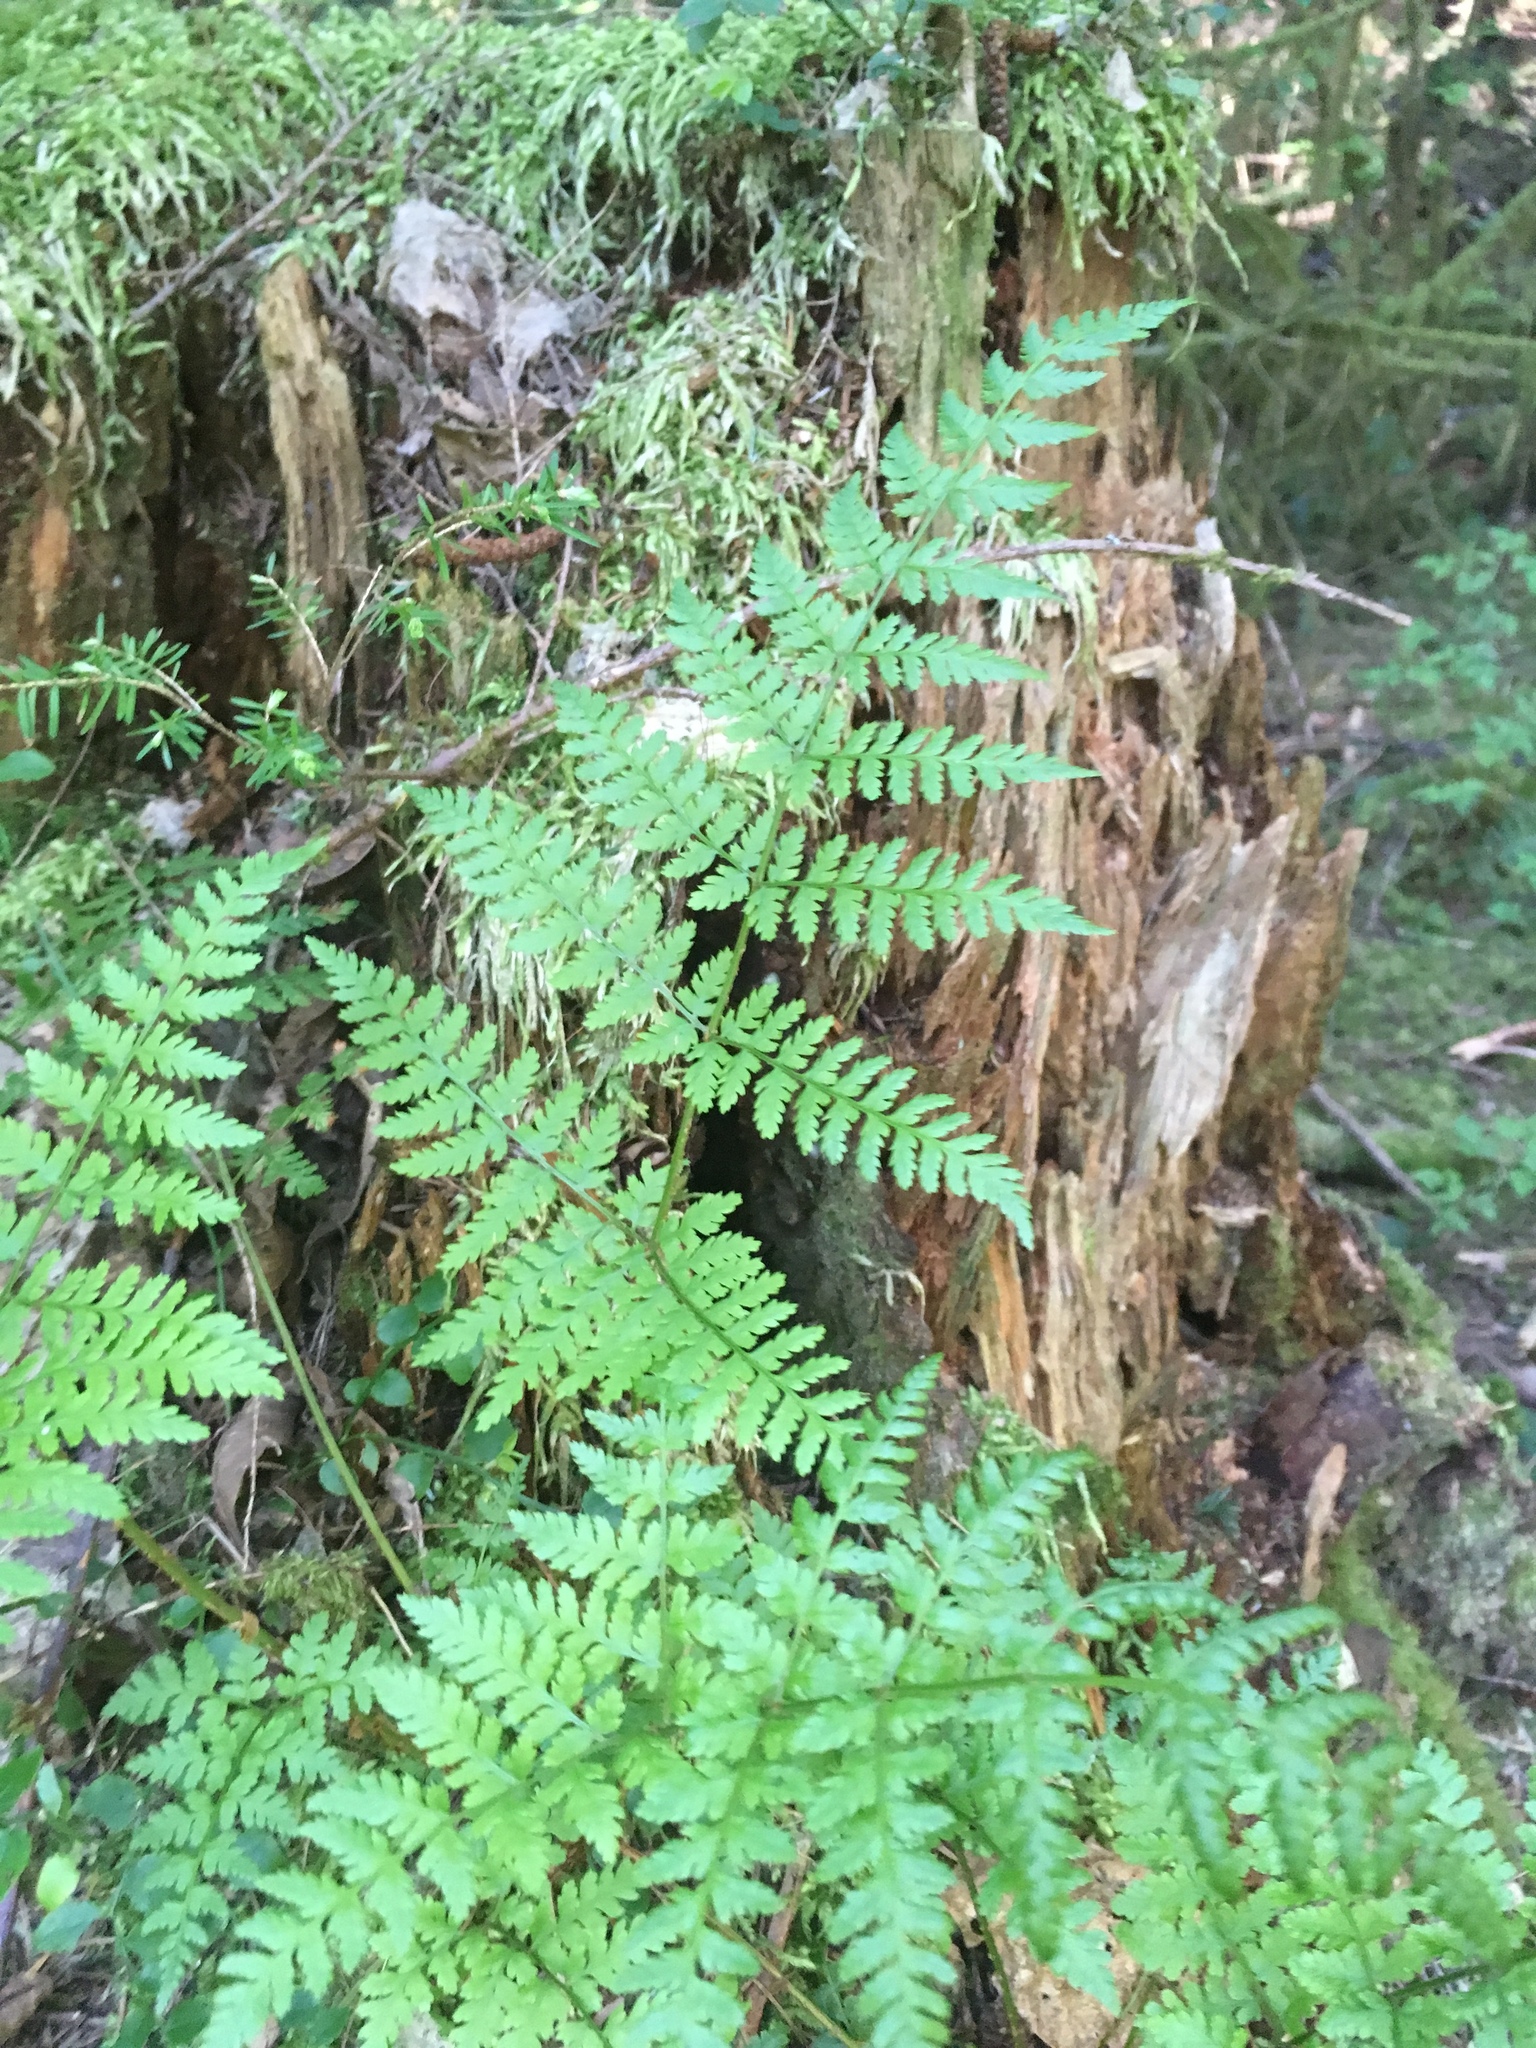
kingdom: Plantae
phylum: Tracheophyta
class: Polypodiopsida
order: Polypodiales
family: Dryopteridaceae
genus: Dryopteris
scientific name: Dryopteris expansa
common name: Northern buckler fern
